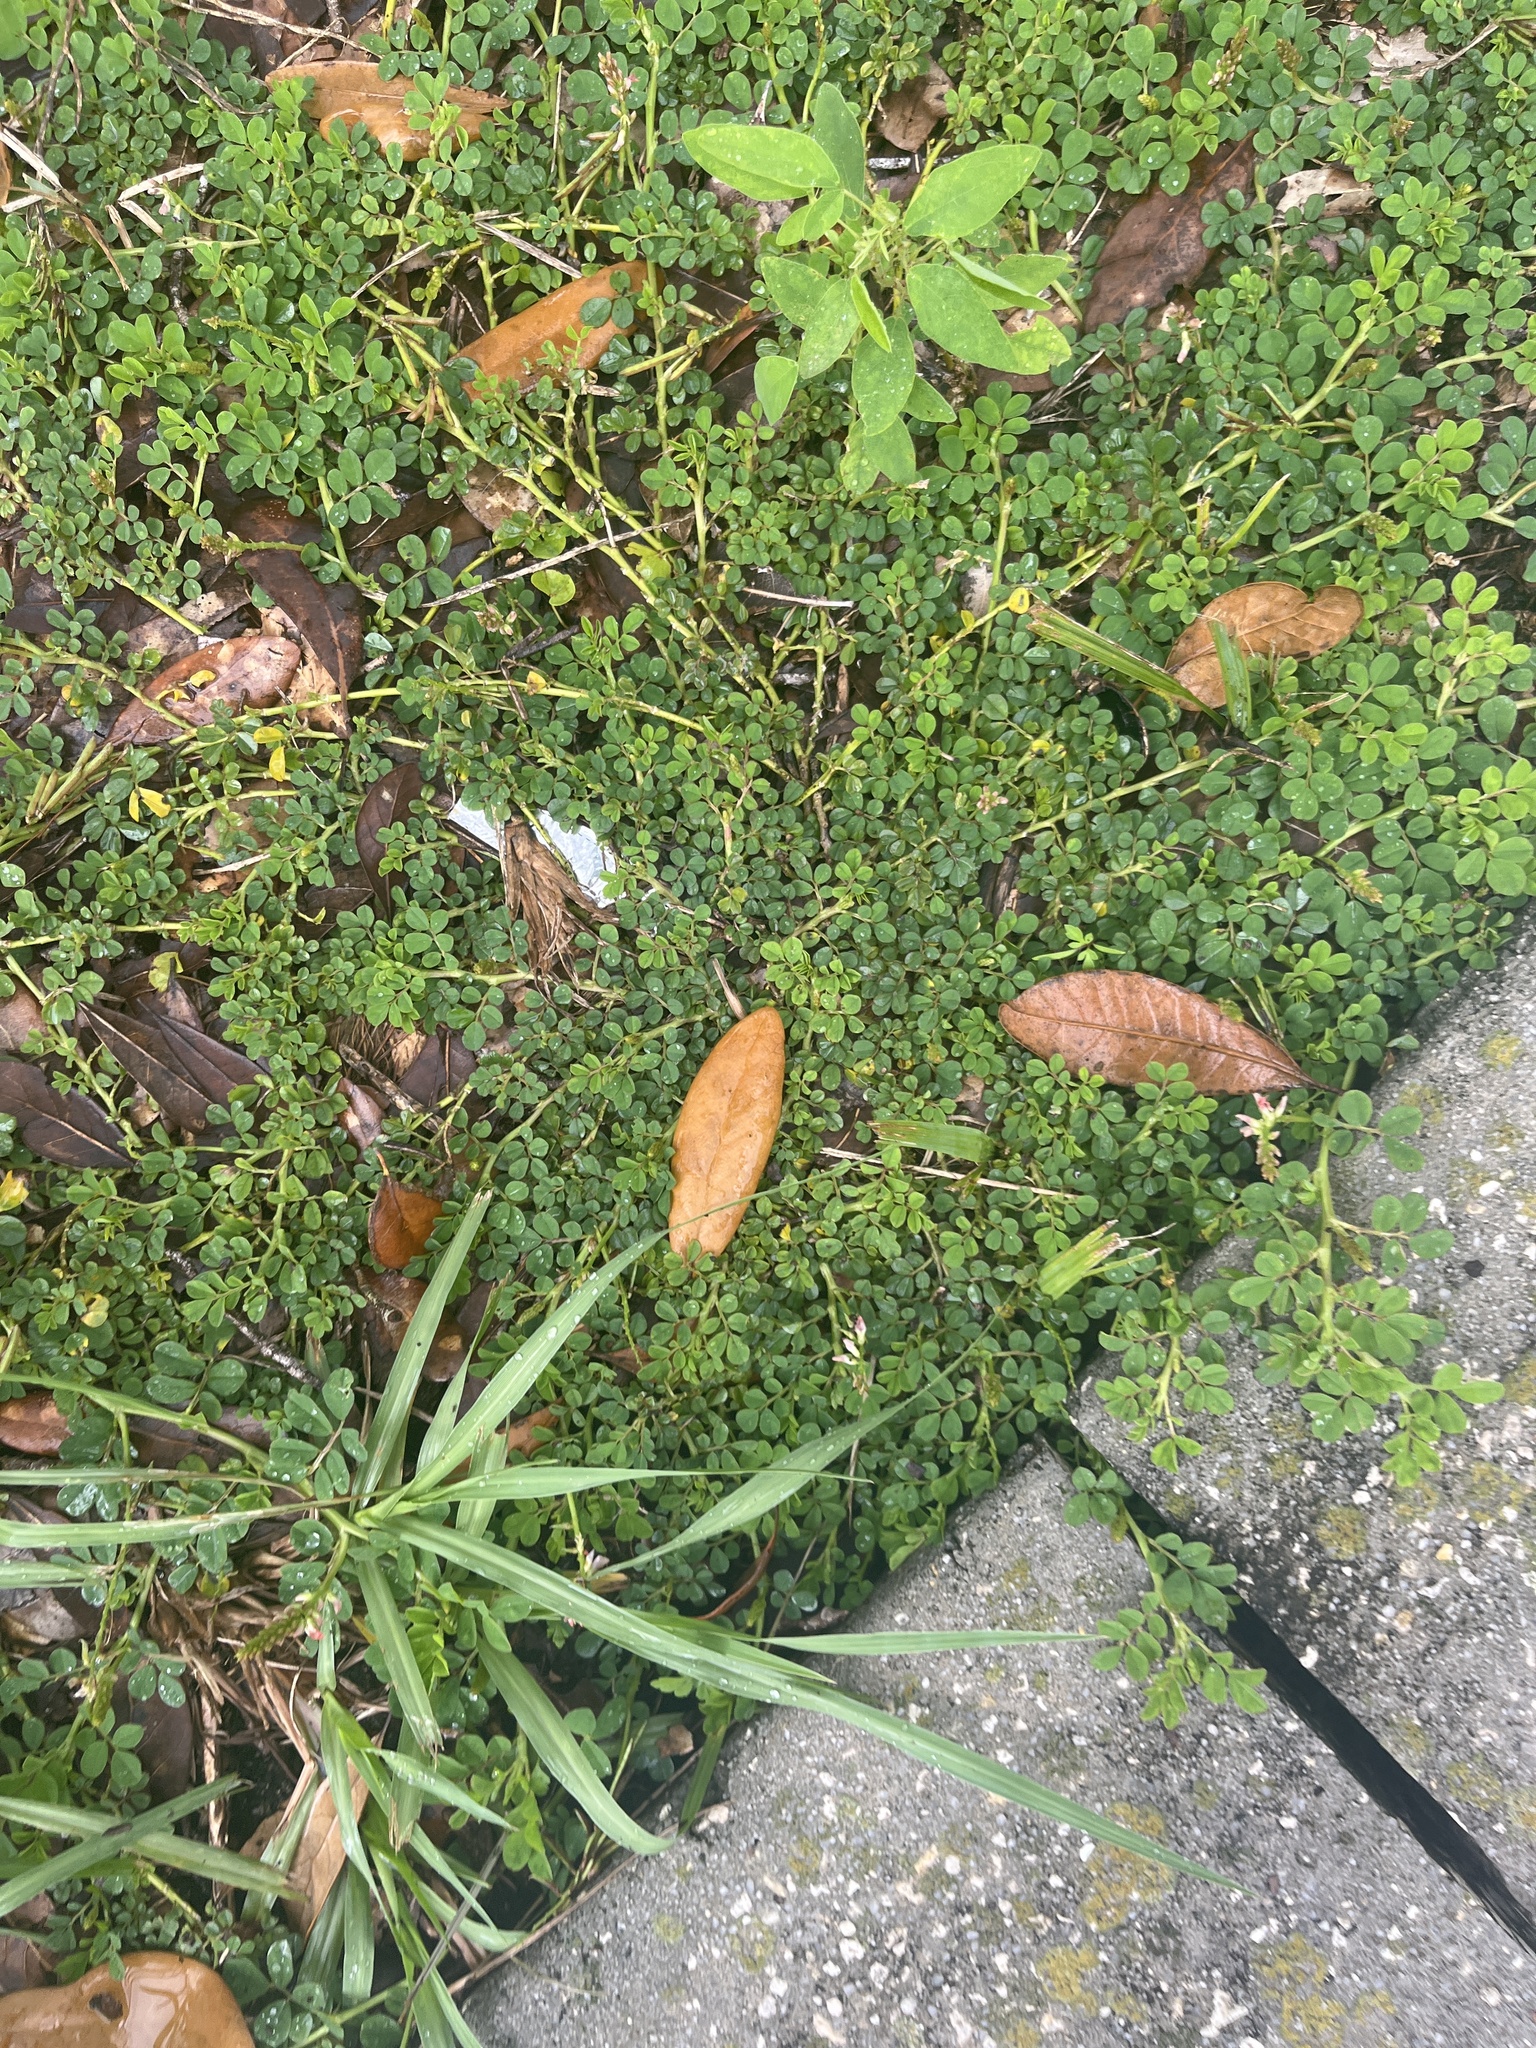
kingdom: Plantae
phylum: Tracheophyta
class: Magnoliopsida
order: Fabales
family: Fabaceae
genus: Indigofera
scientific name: Indigofera spicata
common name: Creeping indigo
